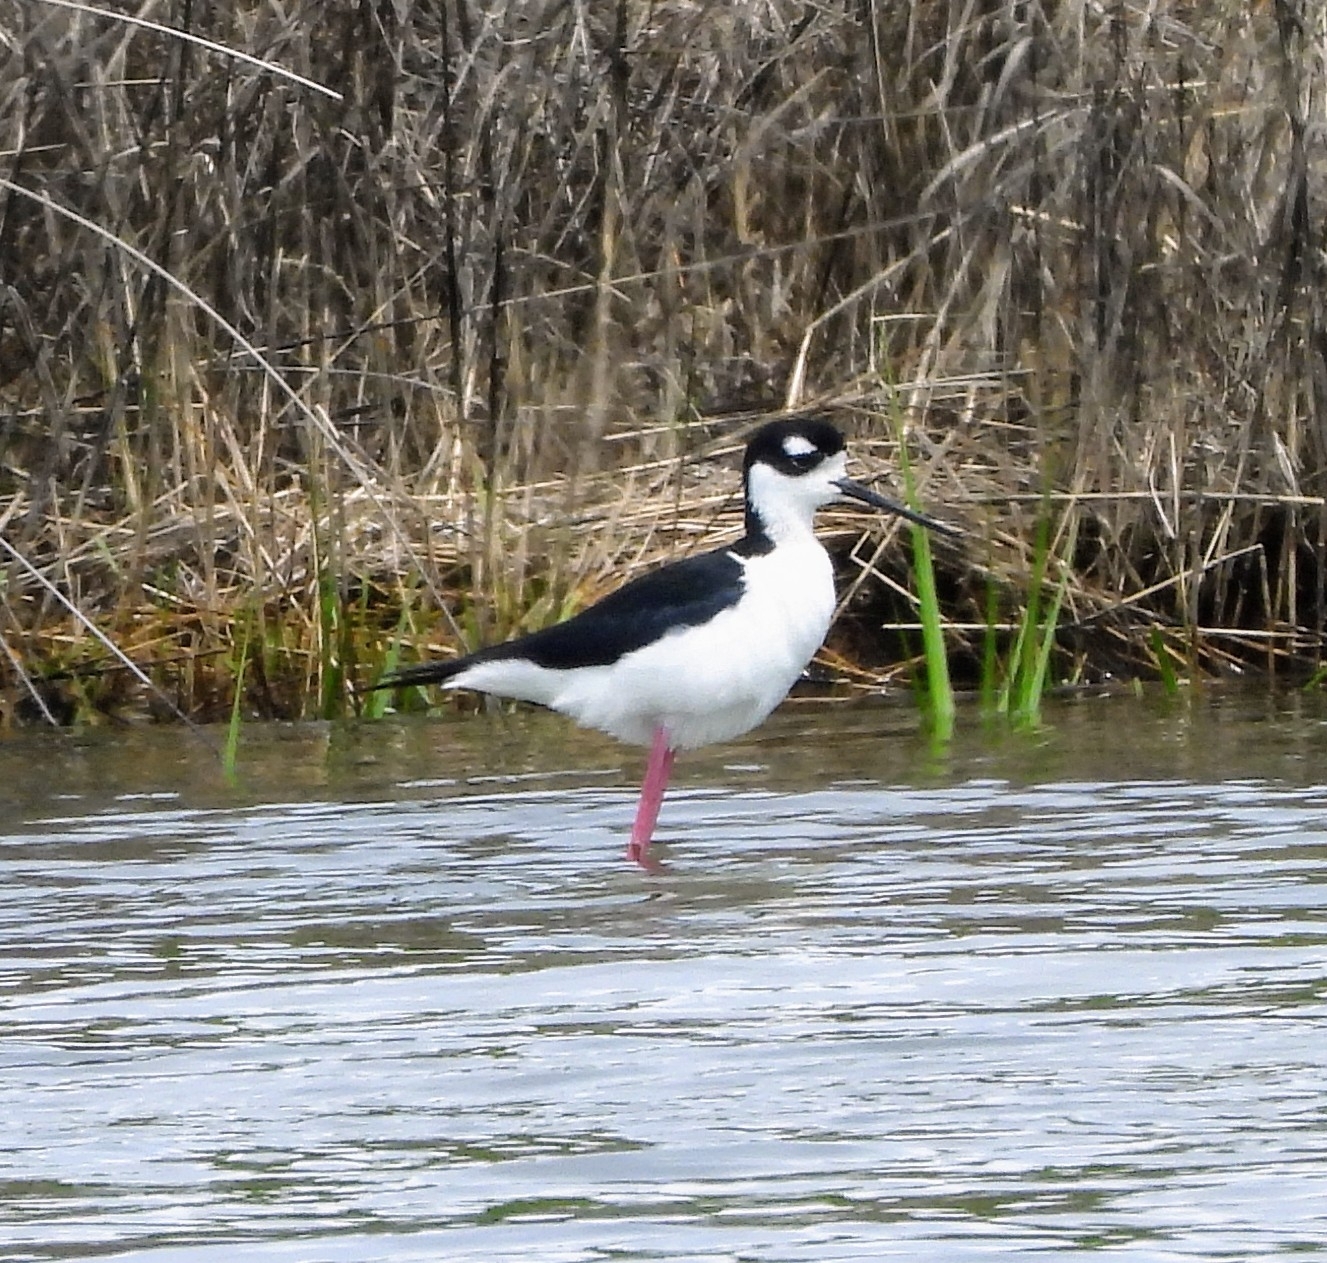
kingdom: Animalia
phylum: Chordata
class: Aves
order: Charadriiformes
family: Recurvirostridae
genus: Himantopus
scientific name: Himantopus mexicanus
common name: Black-necked stilt
